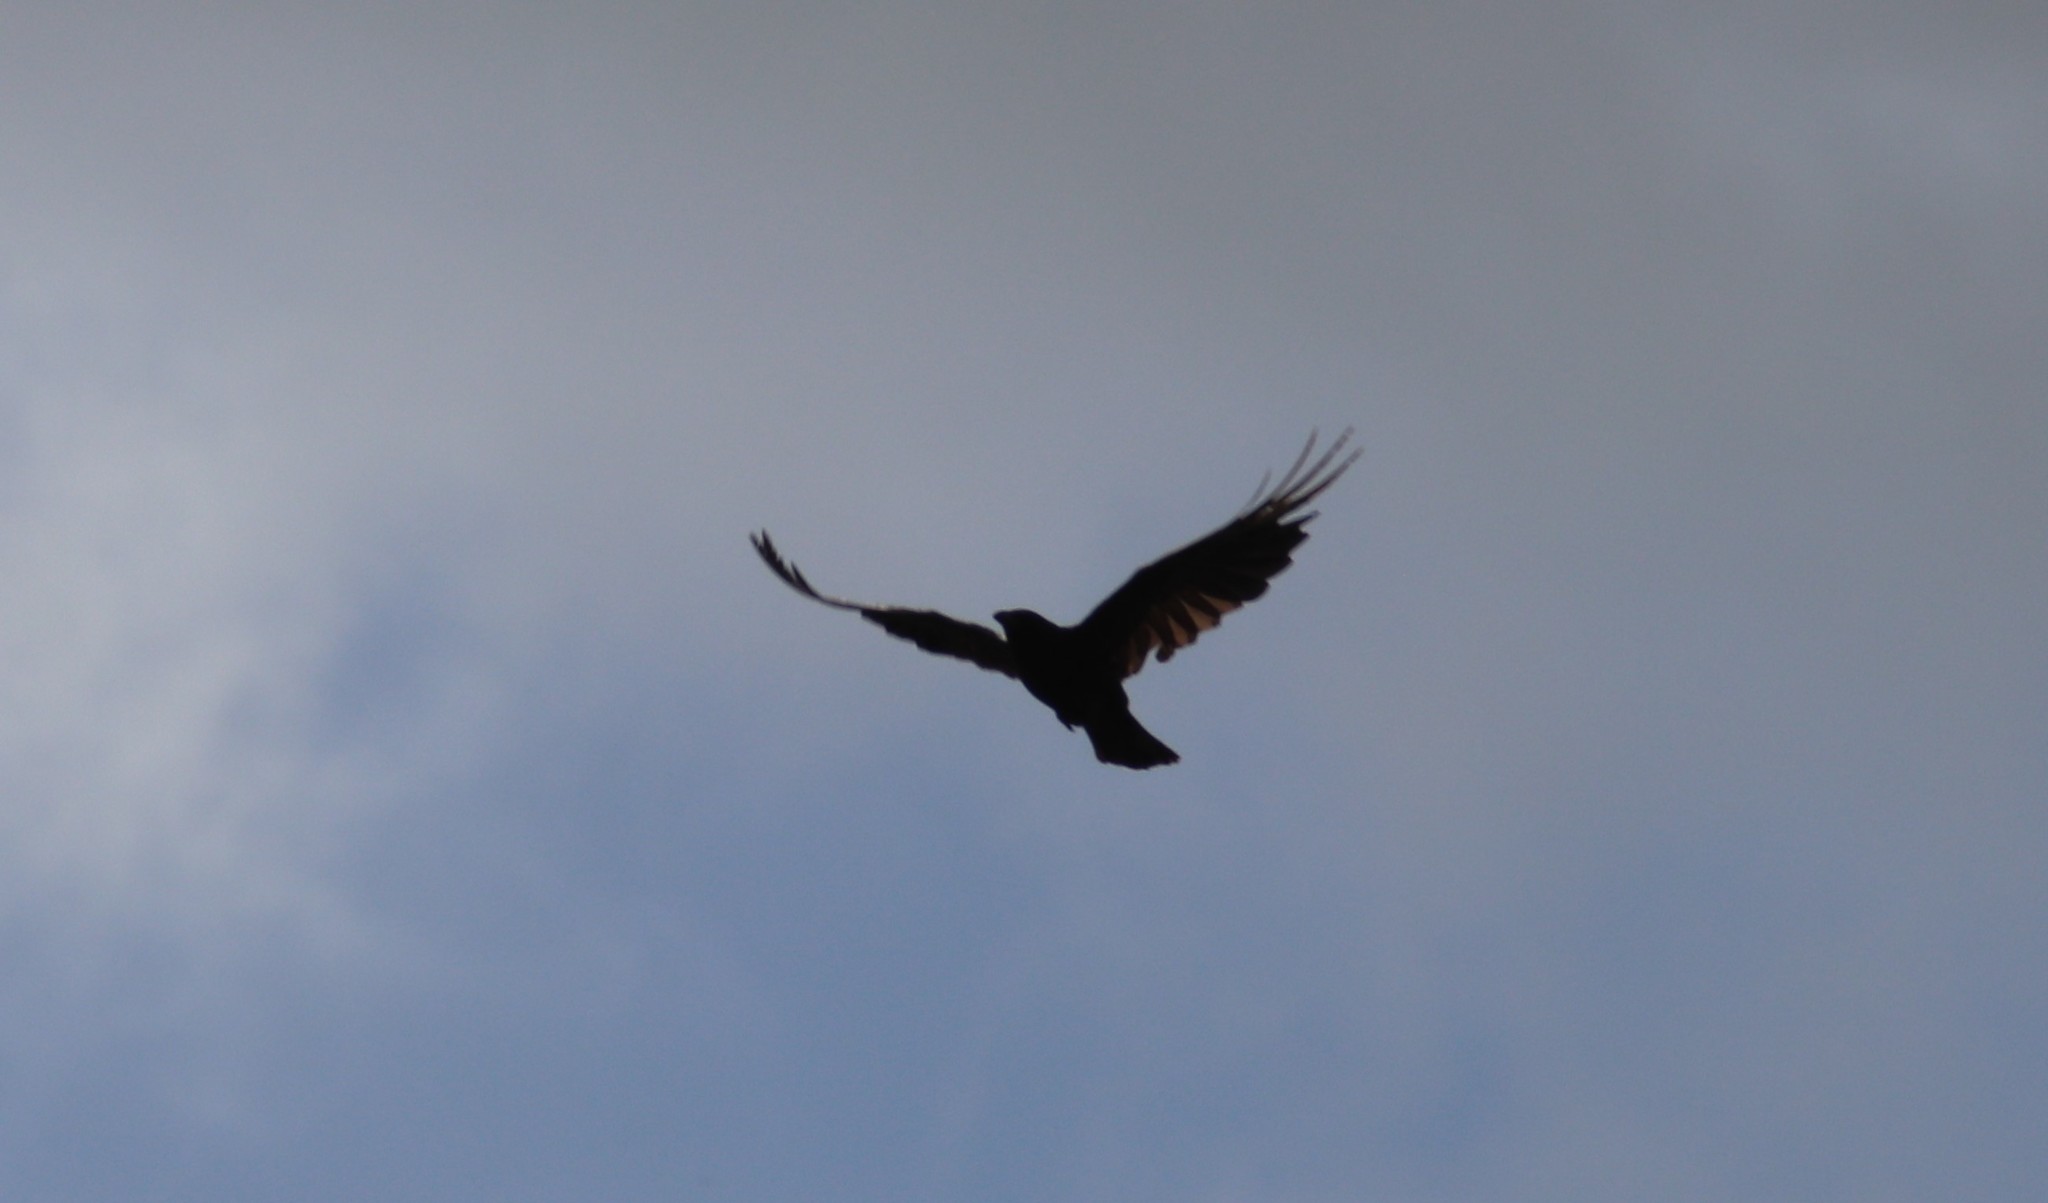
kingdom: Animalia
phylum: Chordata
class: Aves
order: Passeriformes
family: Corvidae
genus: Corvus
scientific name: Corvus brachyrhynchos
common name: American crow
